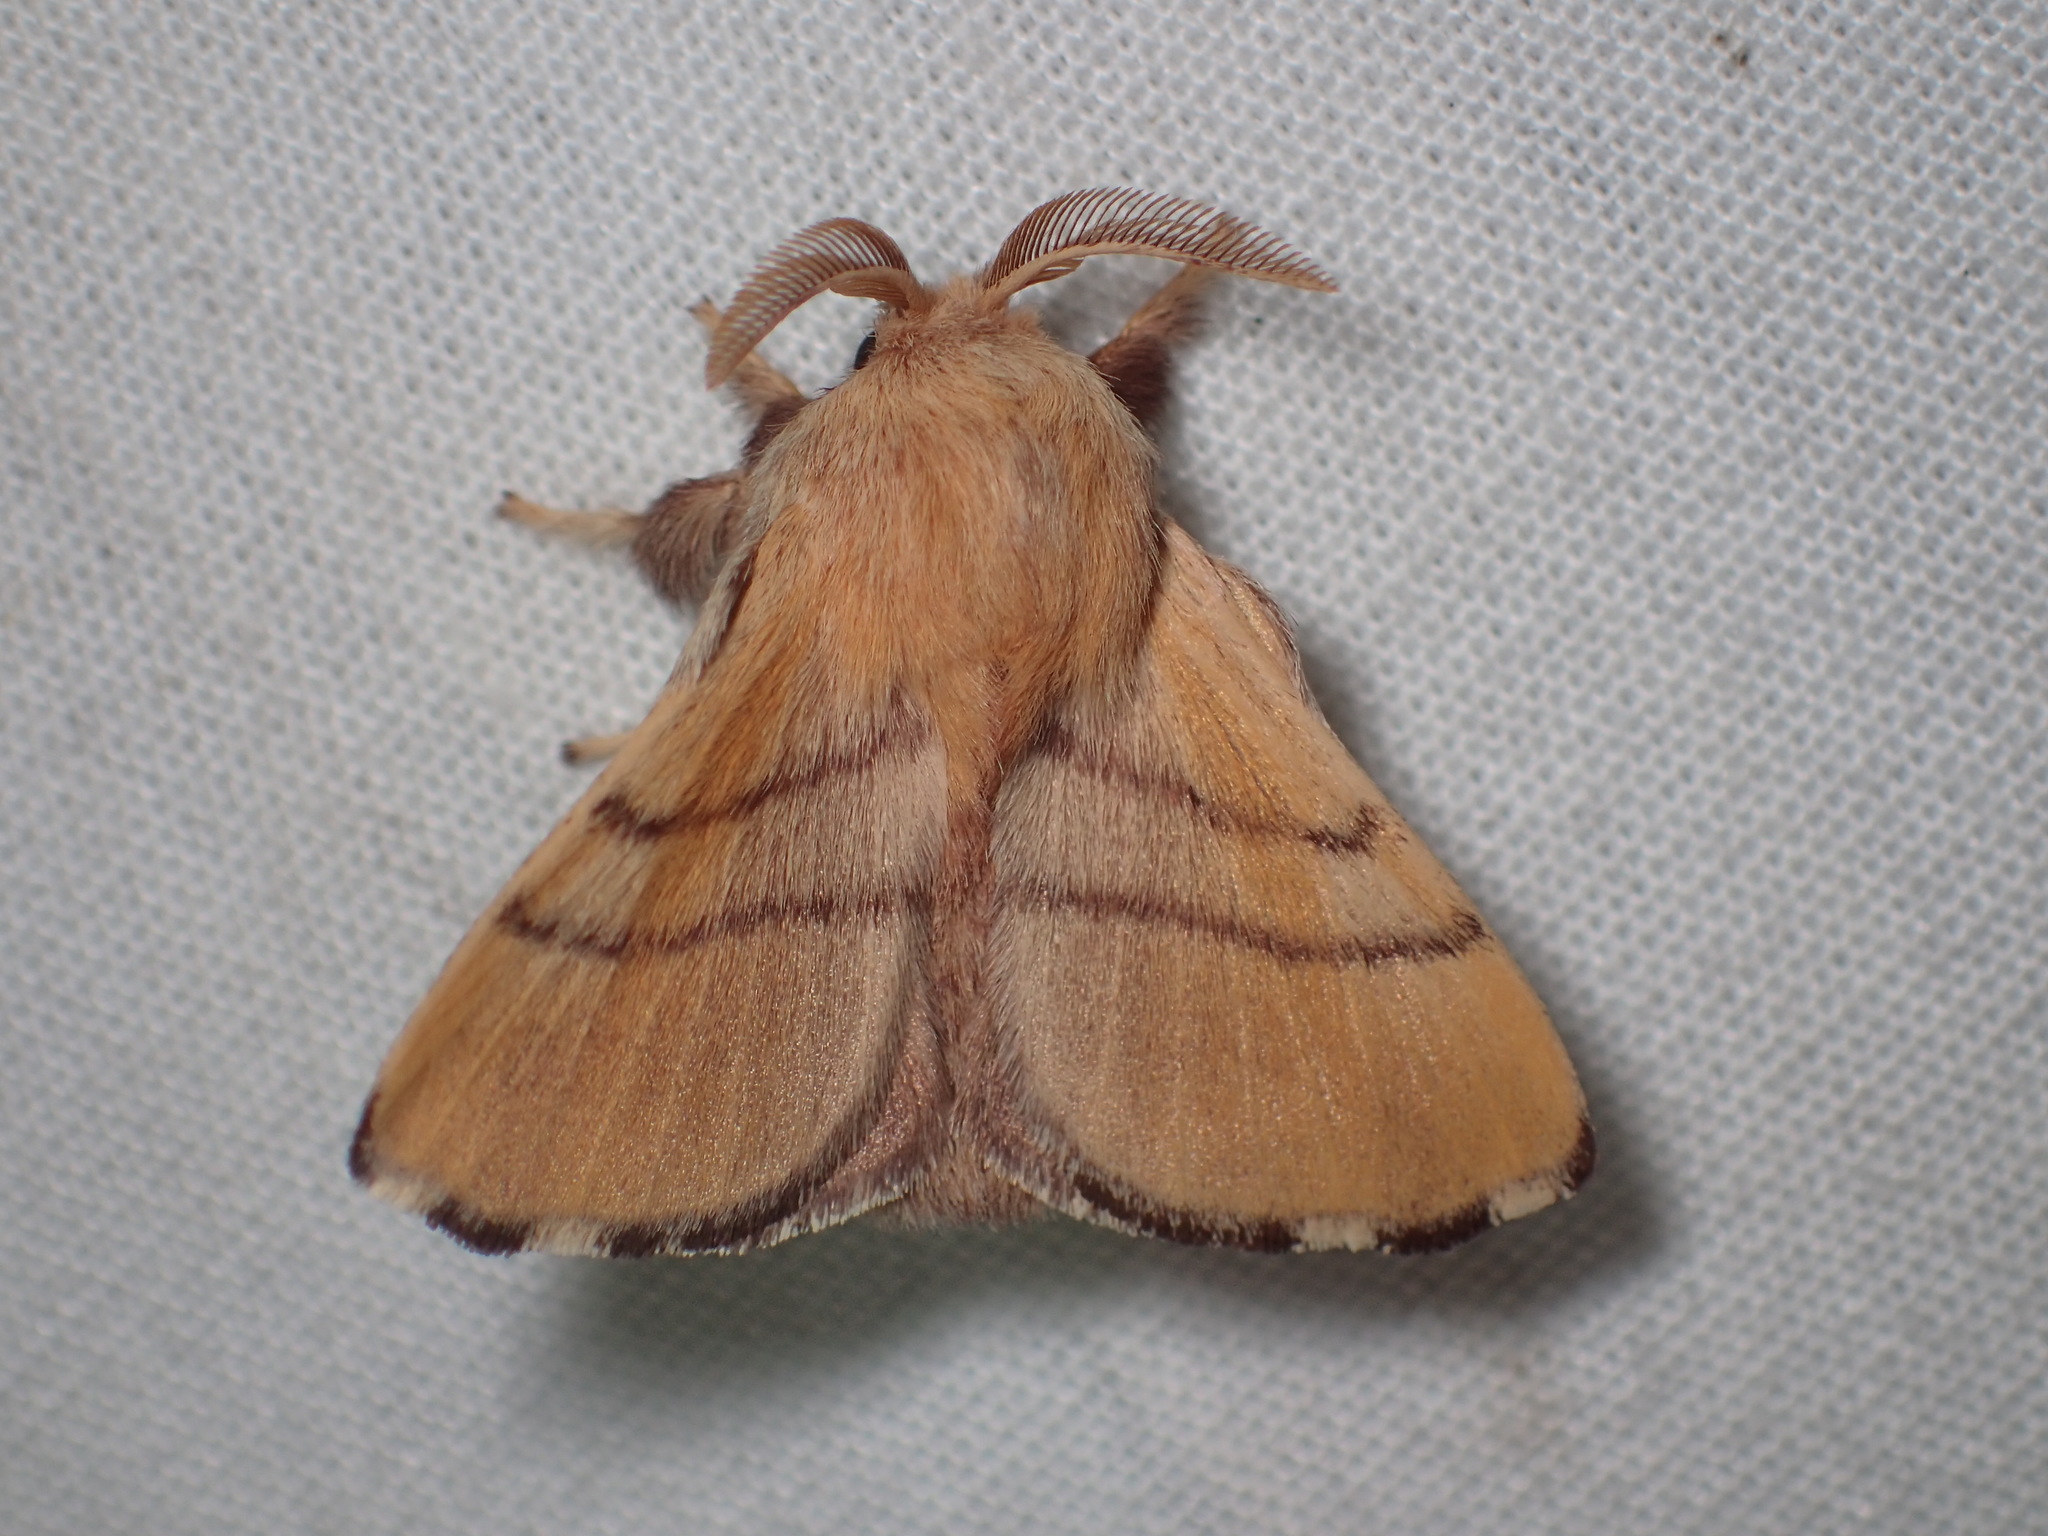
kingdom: Animalia
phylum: Arthropoda
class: Insecta
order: Lepidoptera
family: Lasiocampidae
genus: Malacosoma
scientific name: Malacosoma disstria
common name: Forest tent caterpillar
